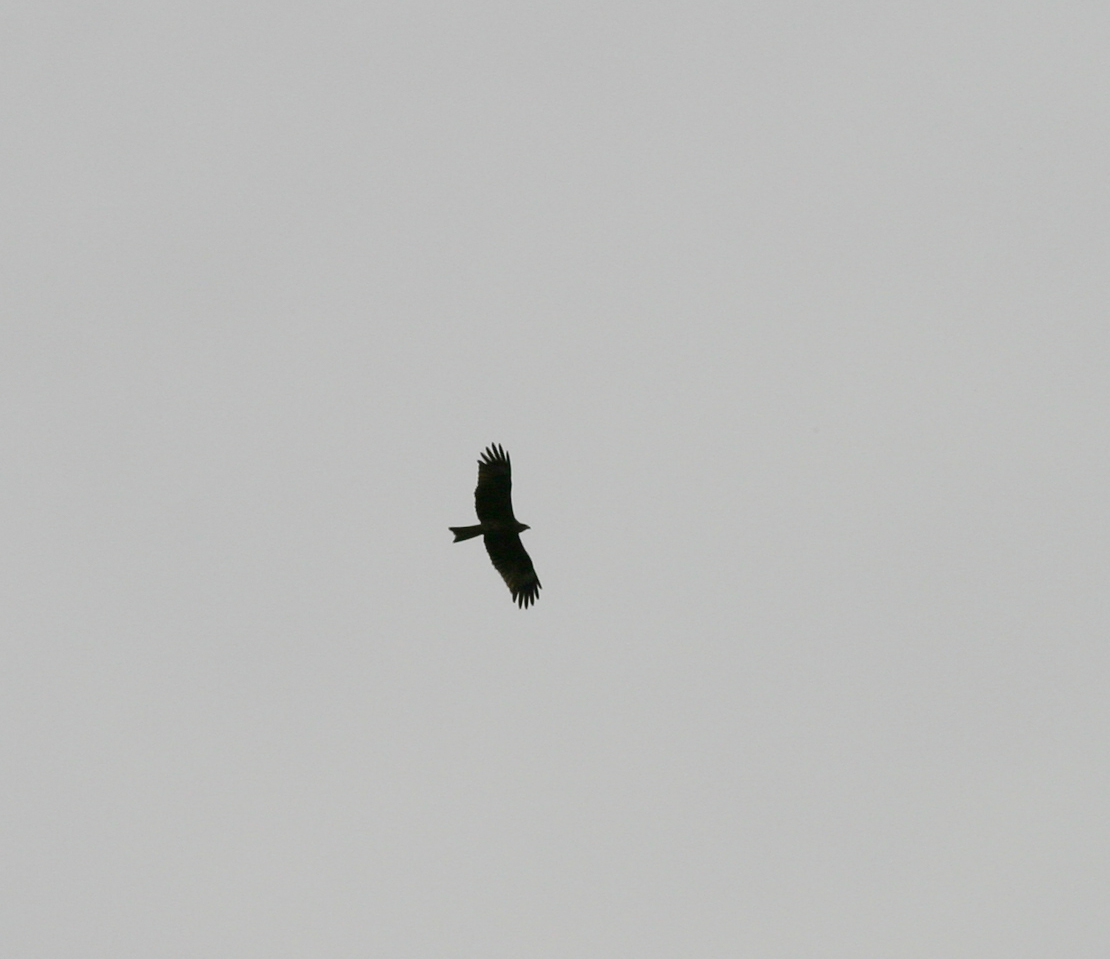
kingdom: Animalia
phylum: Chordata
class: Aves
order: Accipitriformes
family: Accipitridae
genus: Milvus
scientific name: Milvus migrans
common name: Black kite
